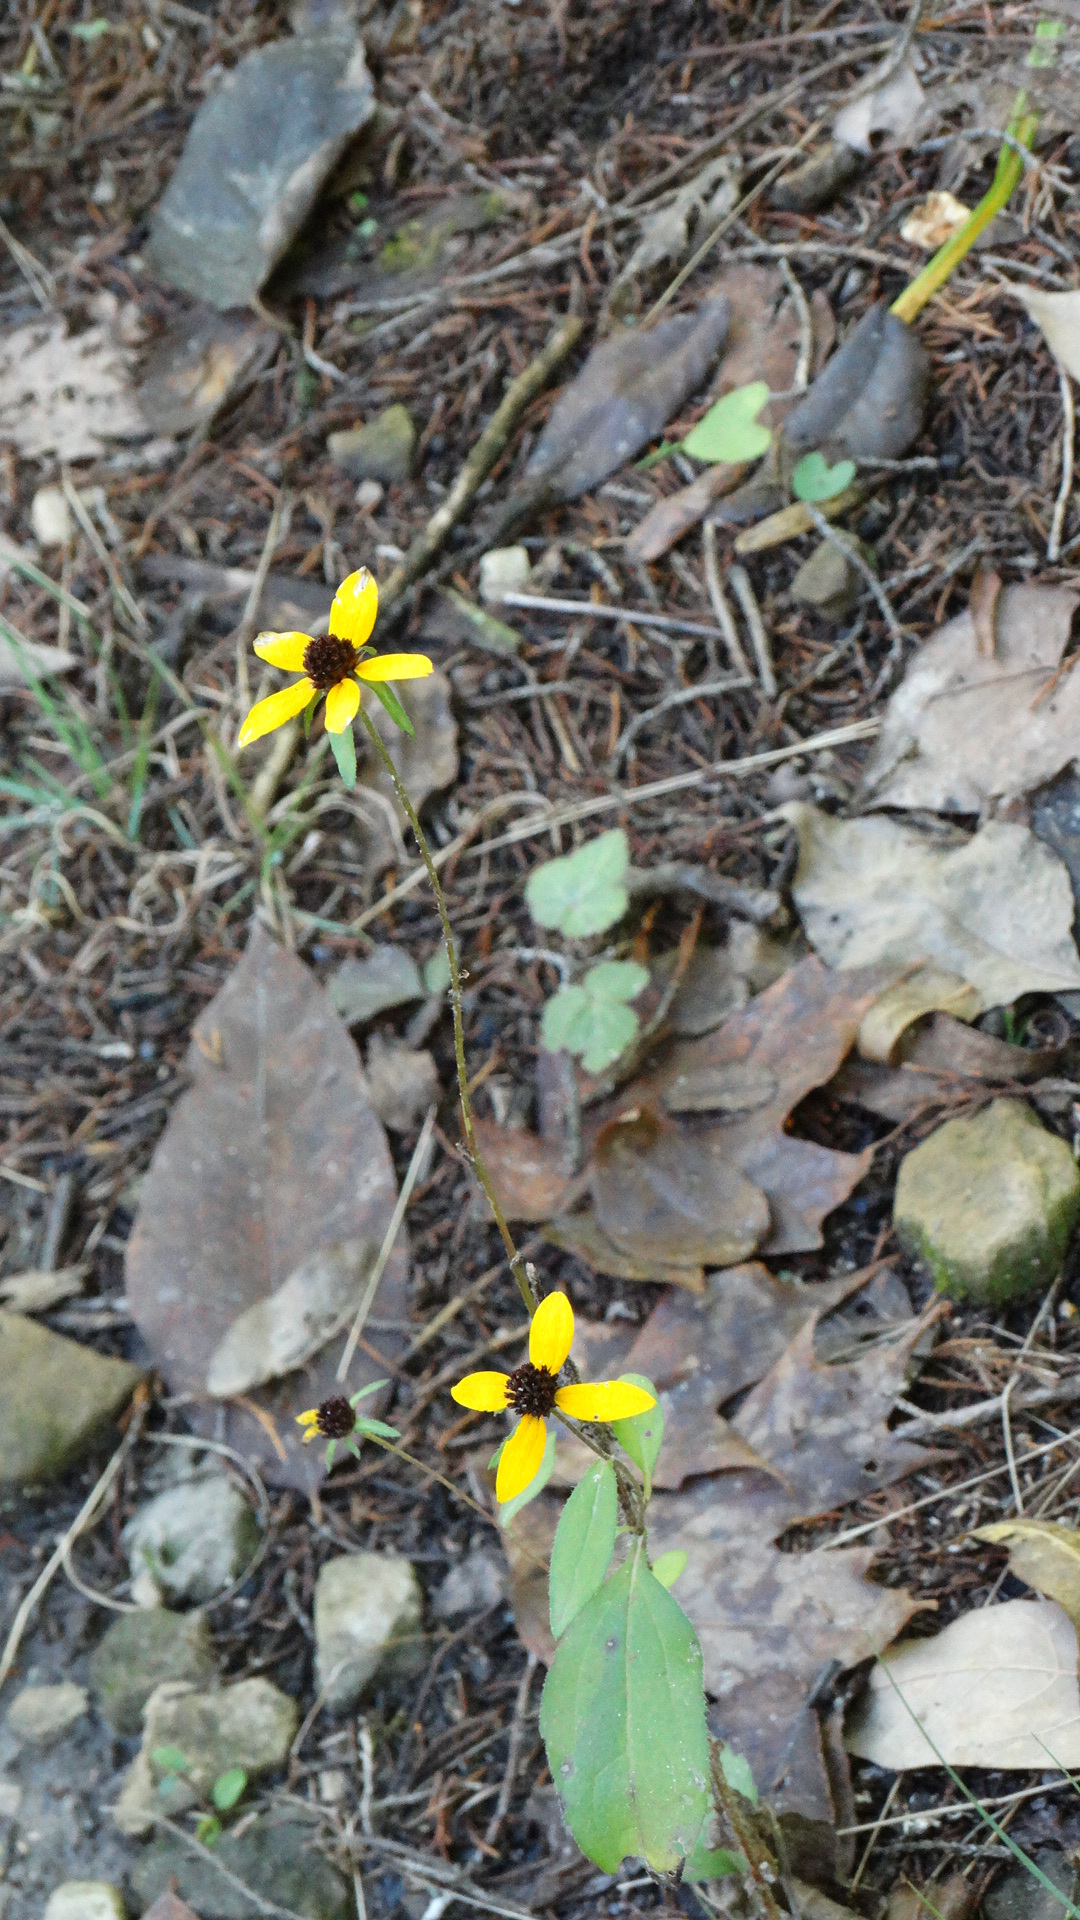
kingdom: Plantae
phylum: Tracheophyta
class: Magnoliopsida
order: Asterales
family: Asteraceae
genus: Rudbeckia
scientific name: Rudbeckia triloba
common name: Thin-leaved coneflower
